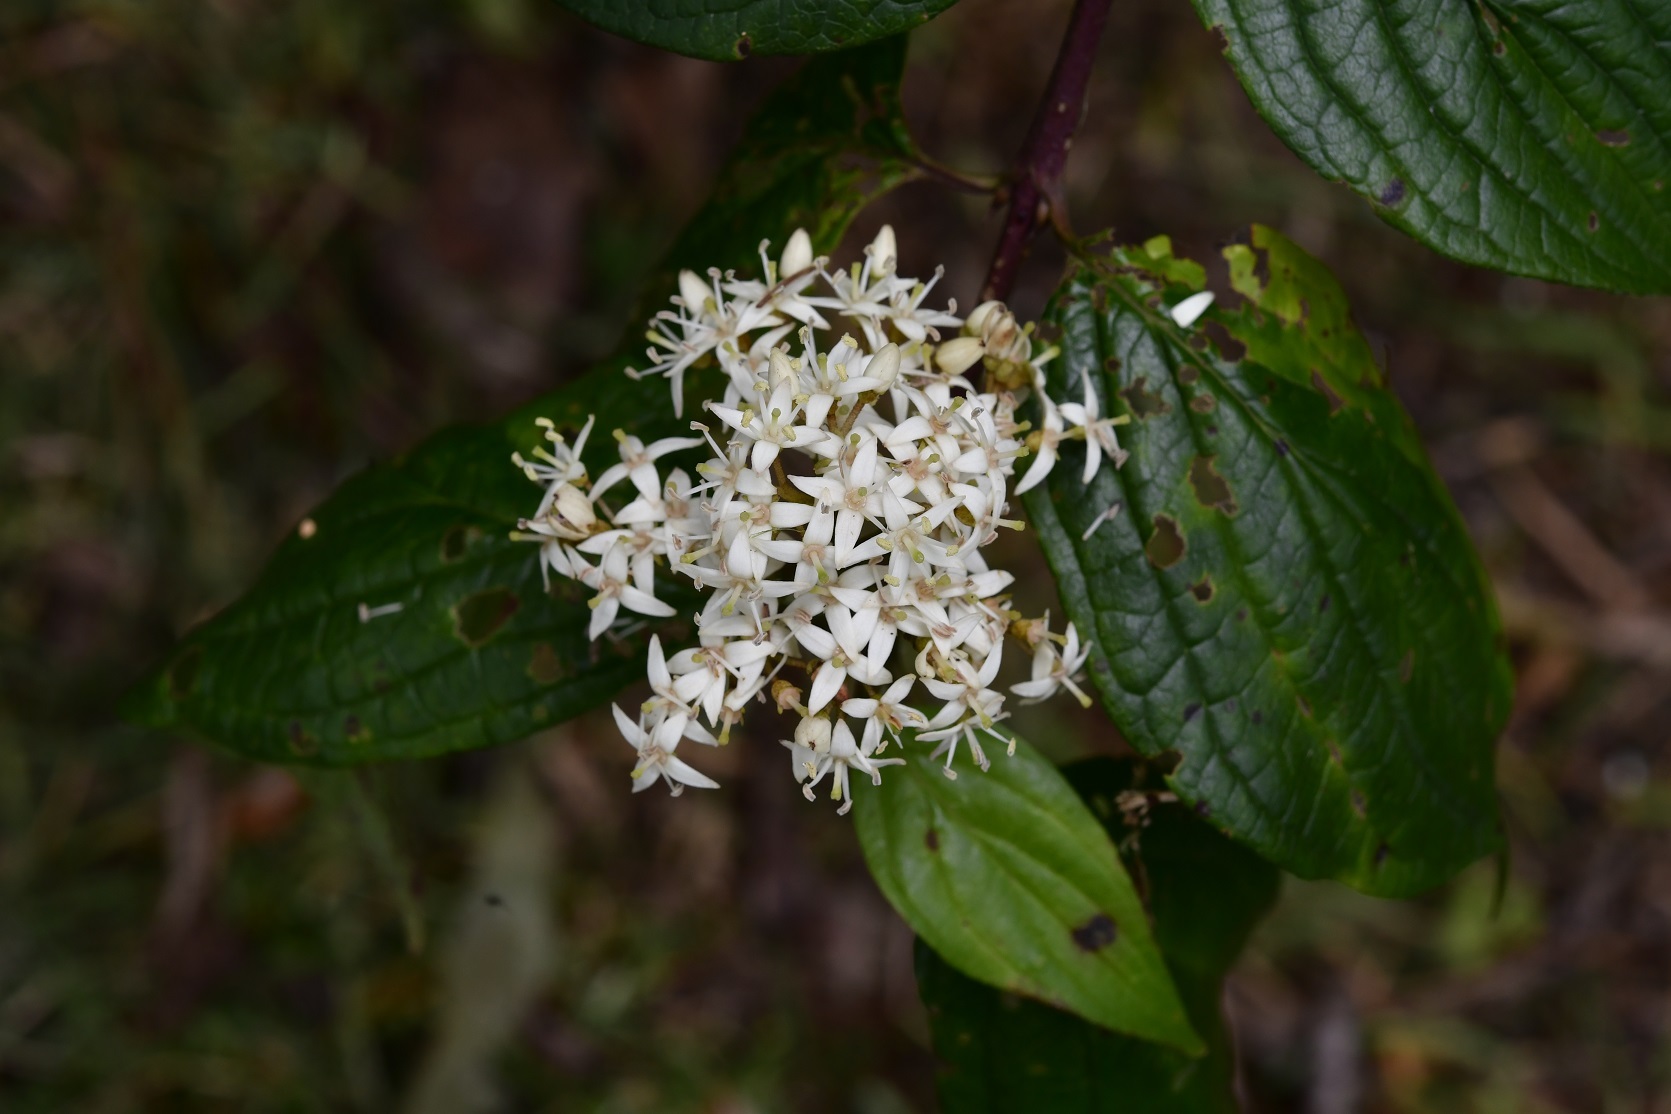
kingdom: Plantae
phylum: Tracheophyta
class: Magnoliopsida
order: Cornales
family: Cornaceae
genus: Cornus
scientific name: Cornus excelsa
